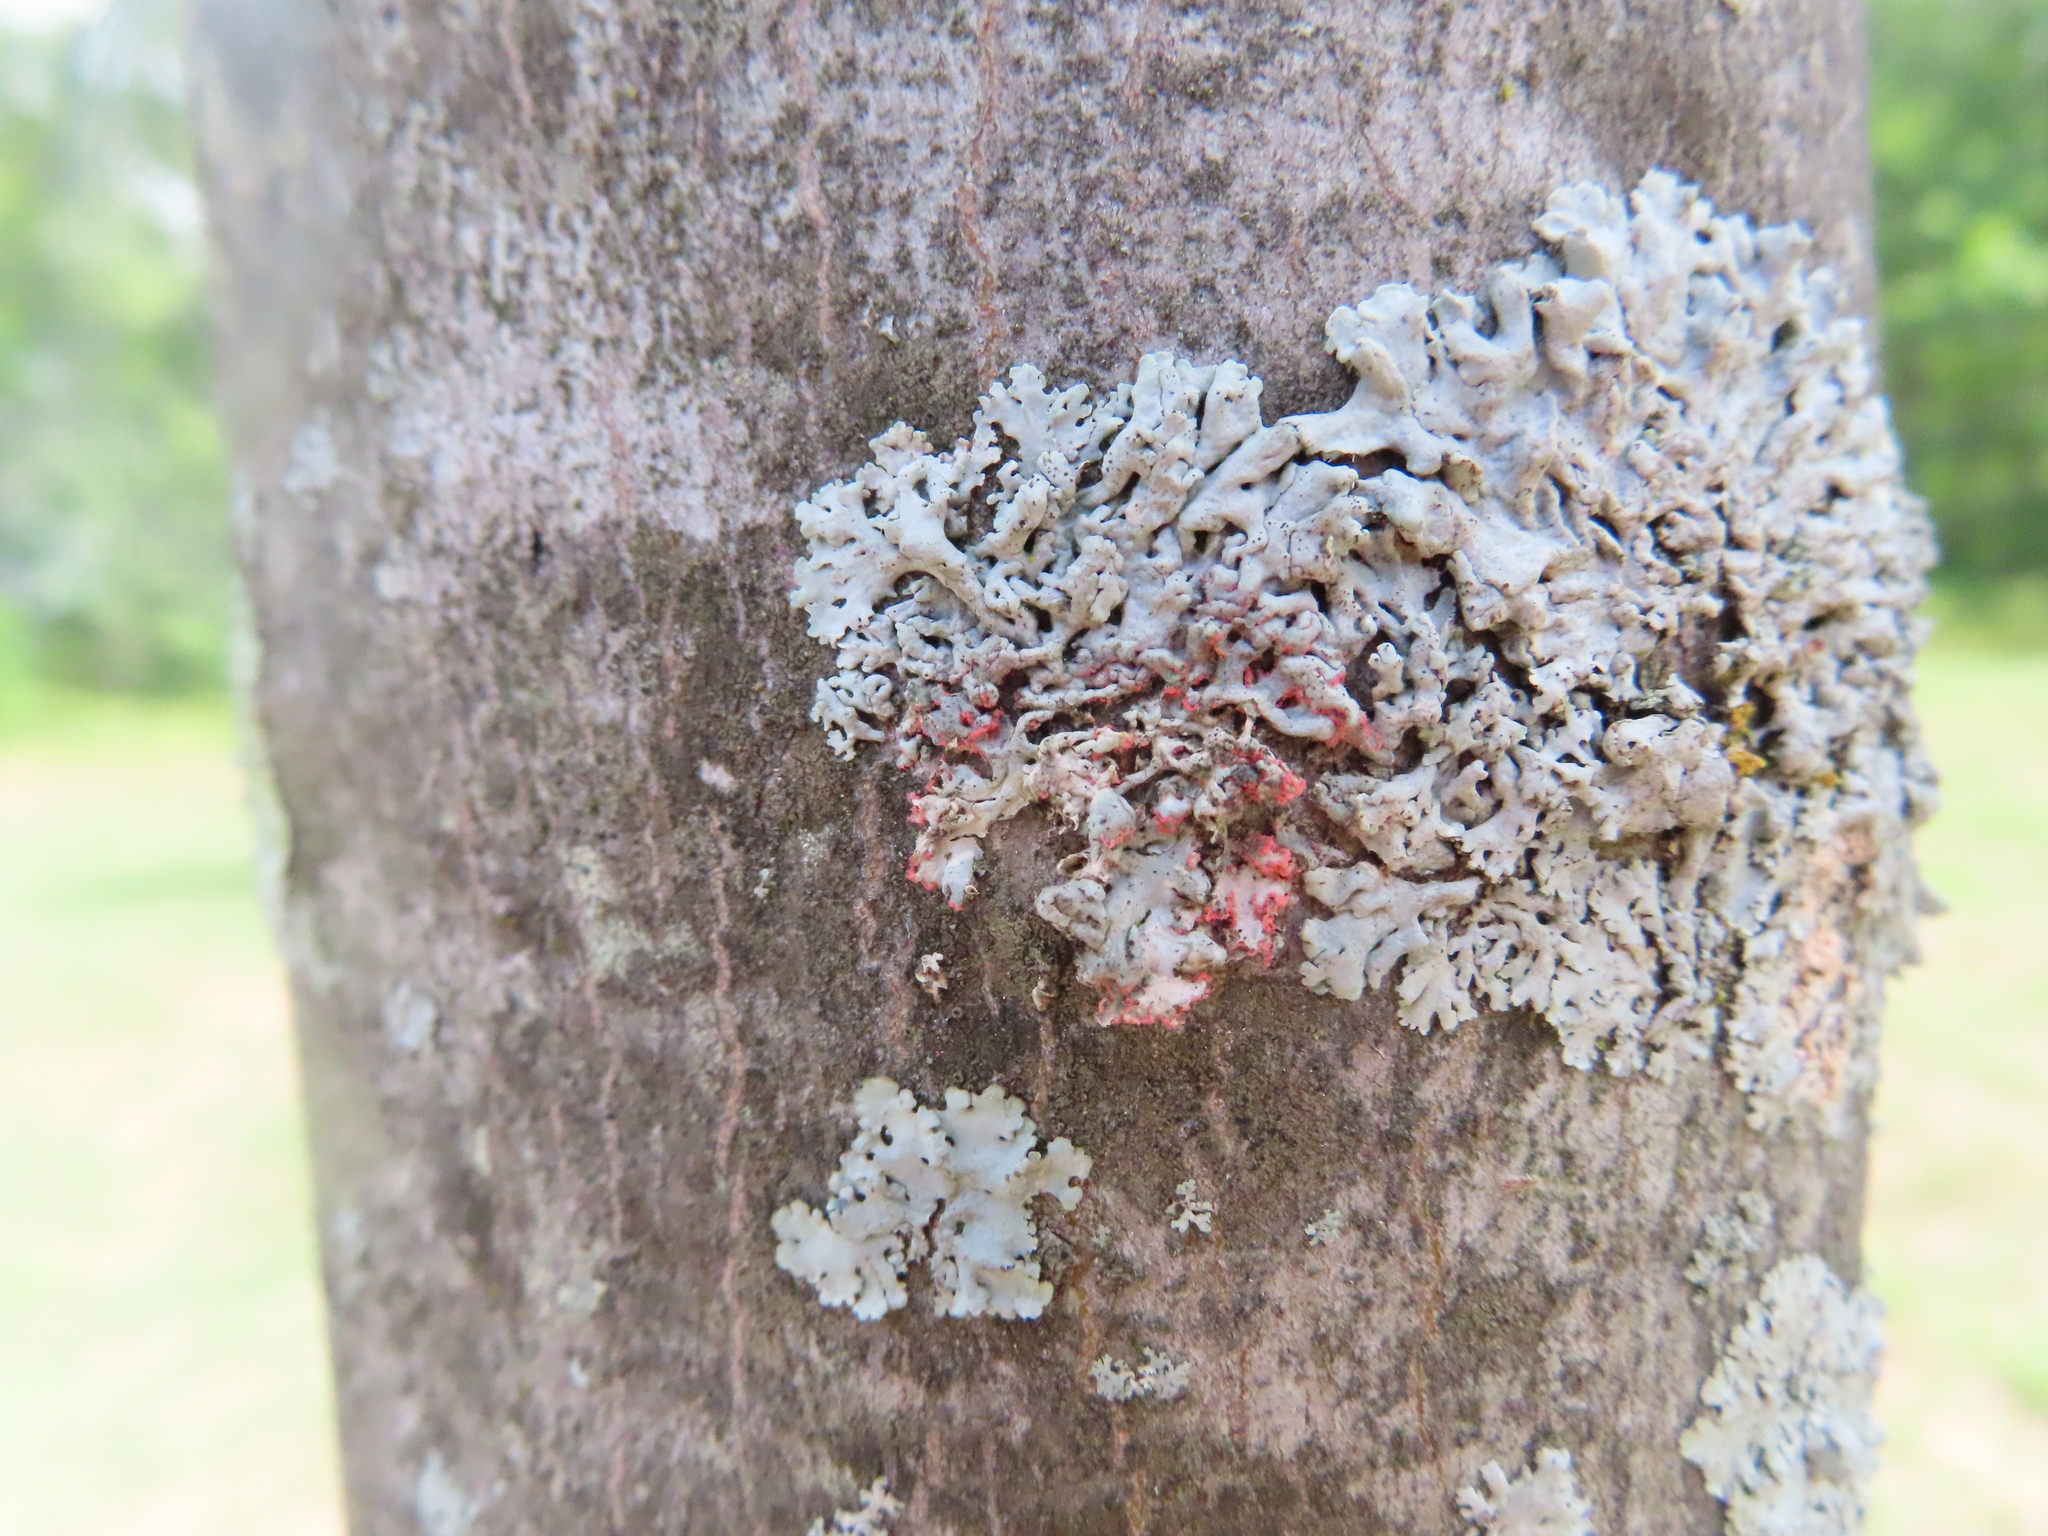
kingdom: Fungi
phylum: Ascomycota
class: Sordariomycetes
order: Hypocreales
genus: Illosporiopsis
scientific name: Illosporiopsis christiansenii
